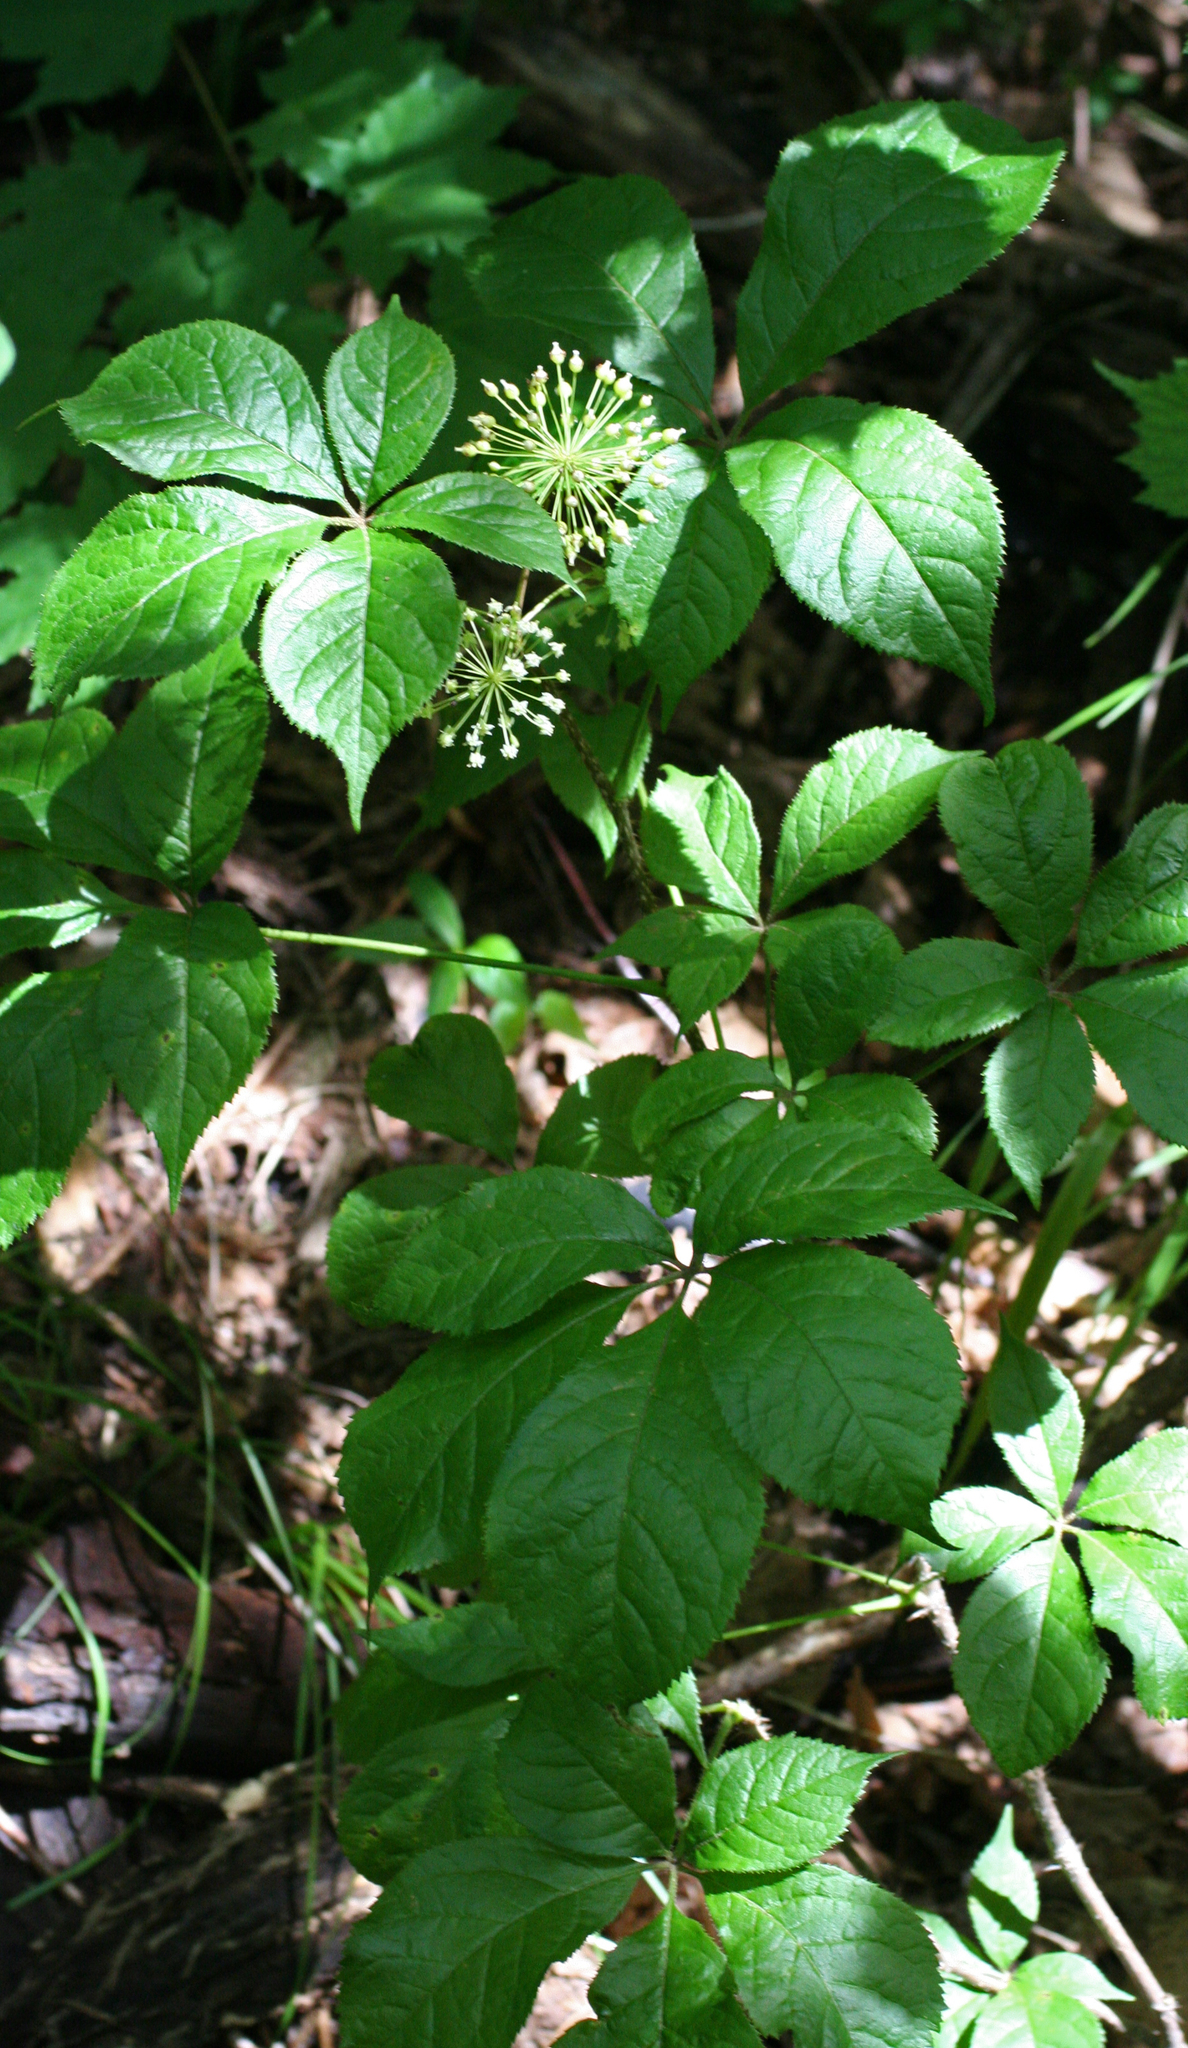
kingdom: Plantae
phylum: Tracheophyta
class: Magnoliopsida
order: Apiales
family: Araliaceae
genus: Eleutherococcus
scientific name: Eleutherococcus senticosus
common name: Siberian-ginseng
